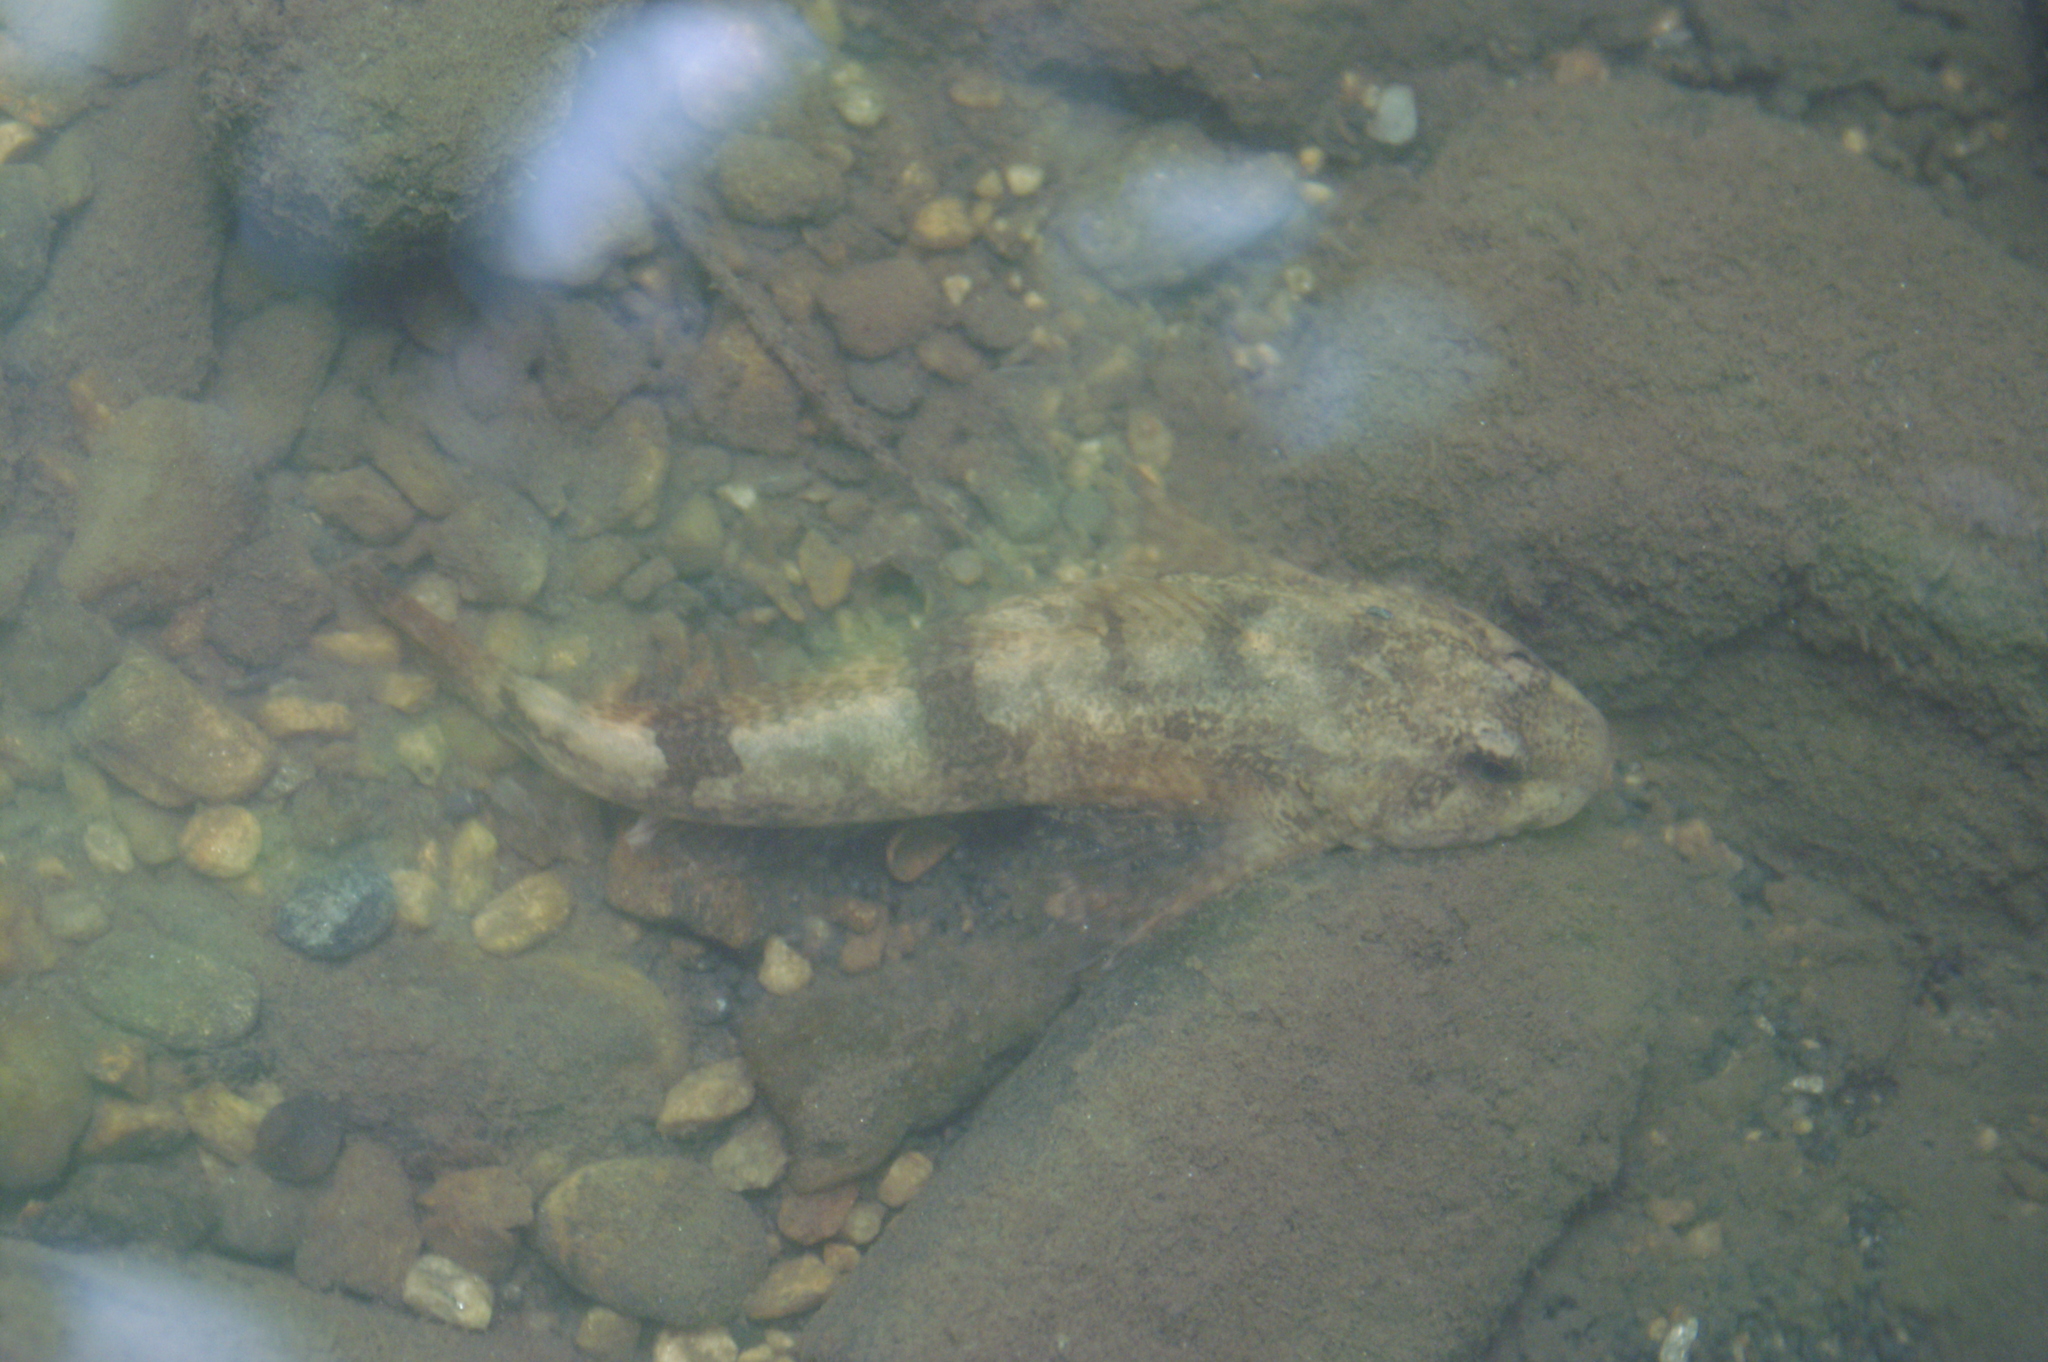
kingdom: Animalia
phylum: Chordata
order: Scorpaeniformes
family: Cottidae
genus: Cottus
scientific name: Cottus gobio
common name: Bullhead
